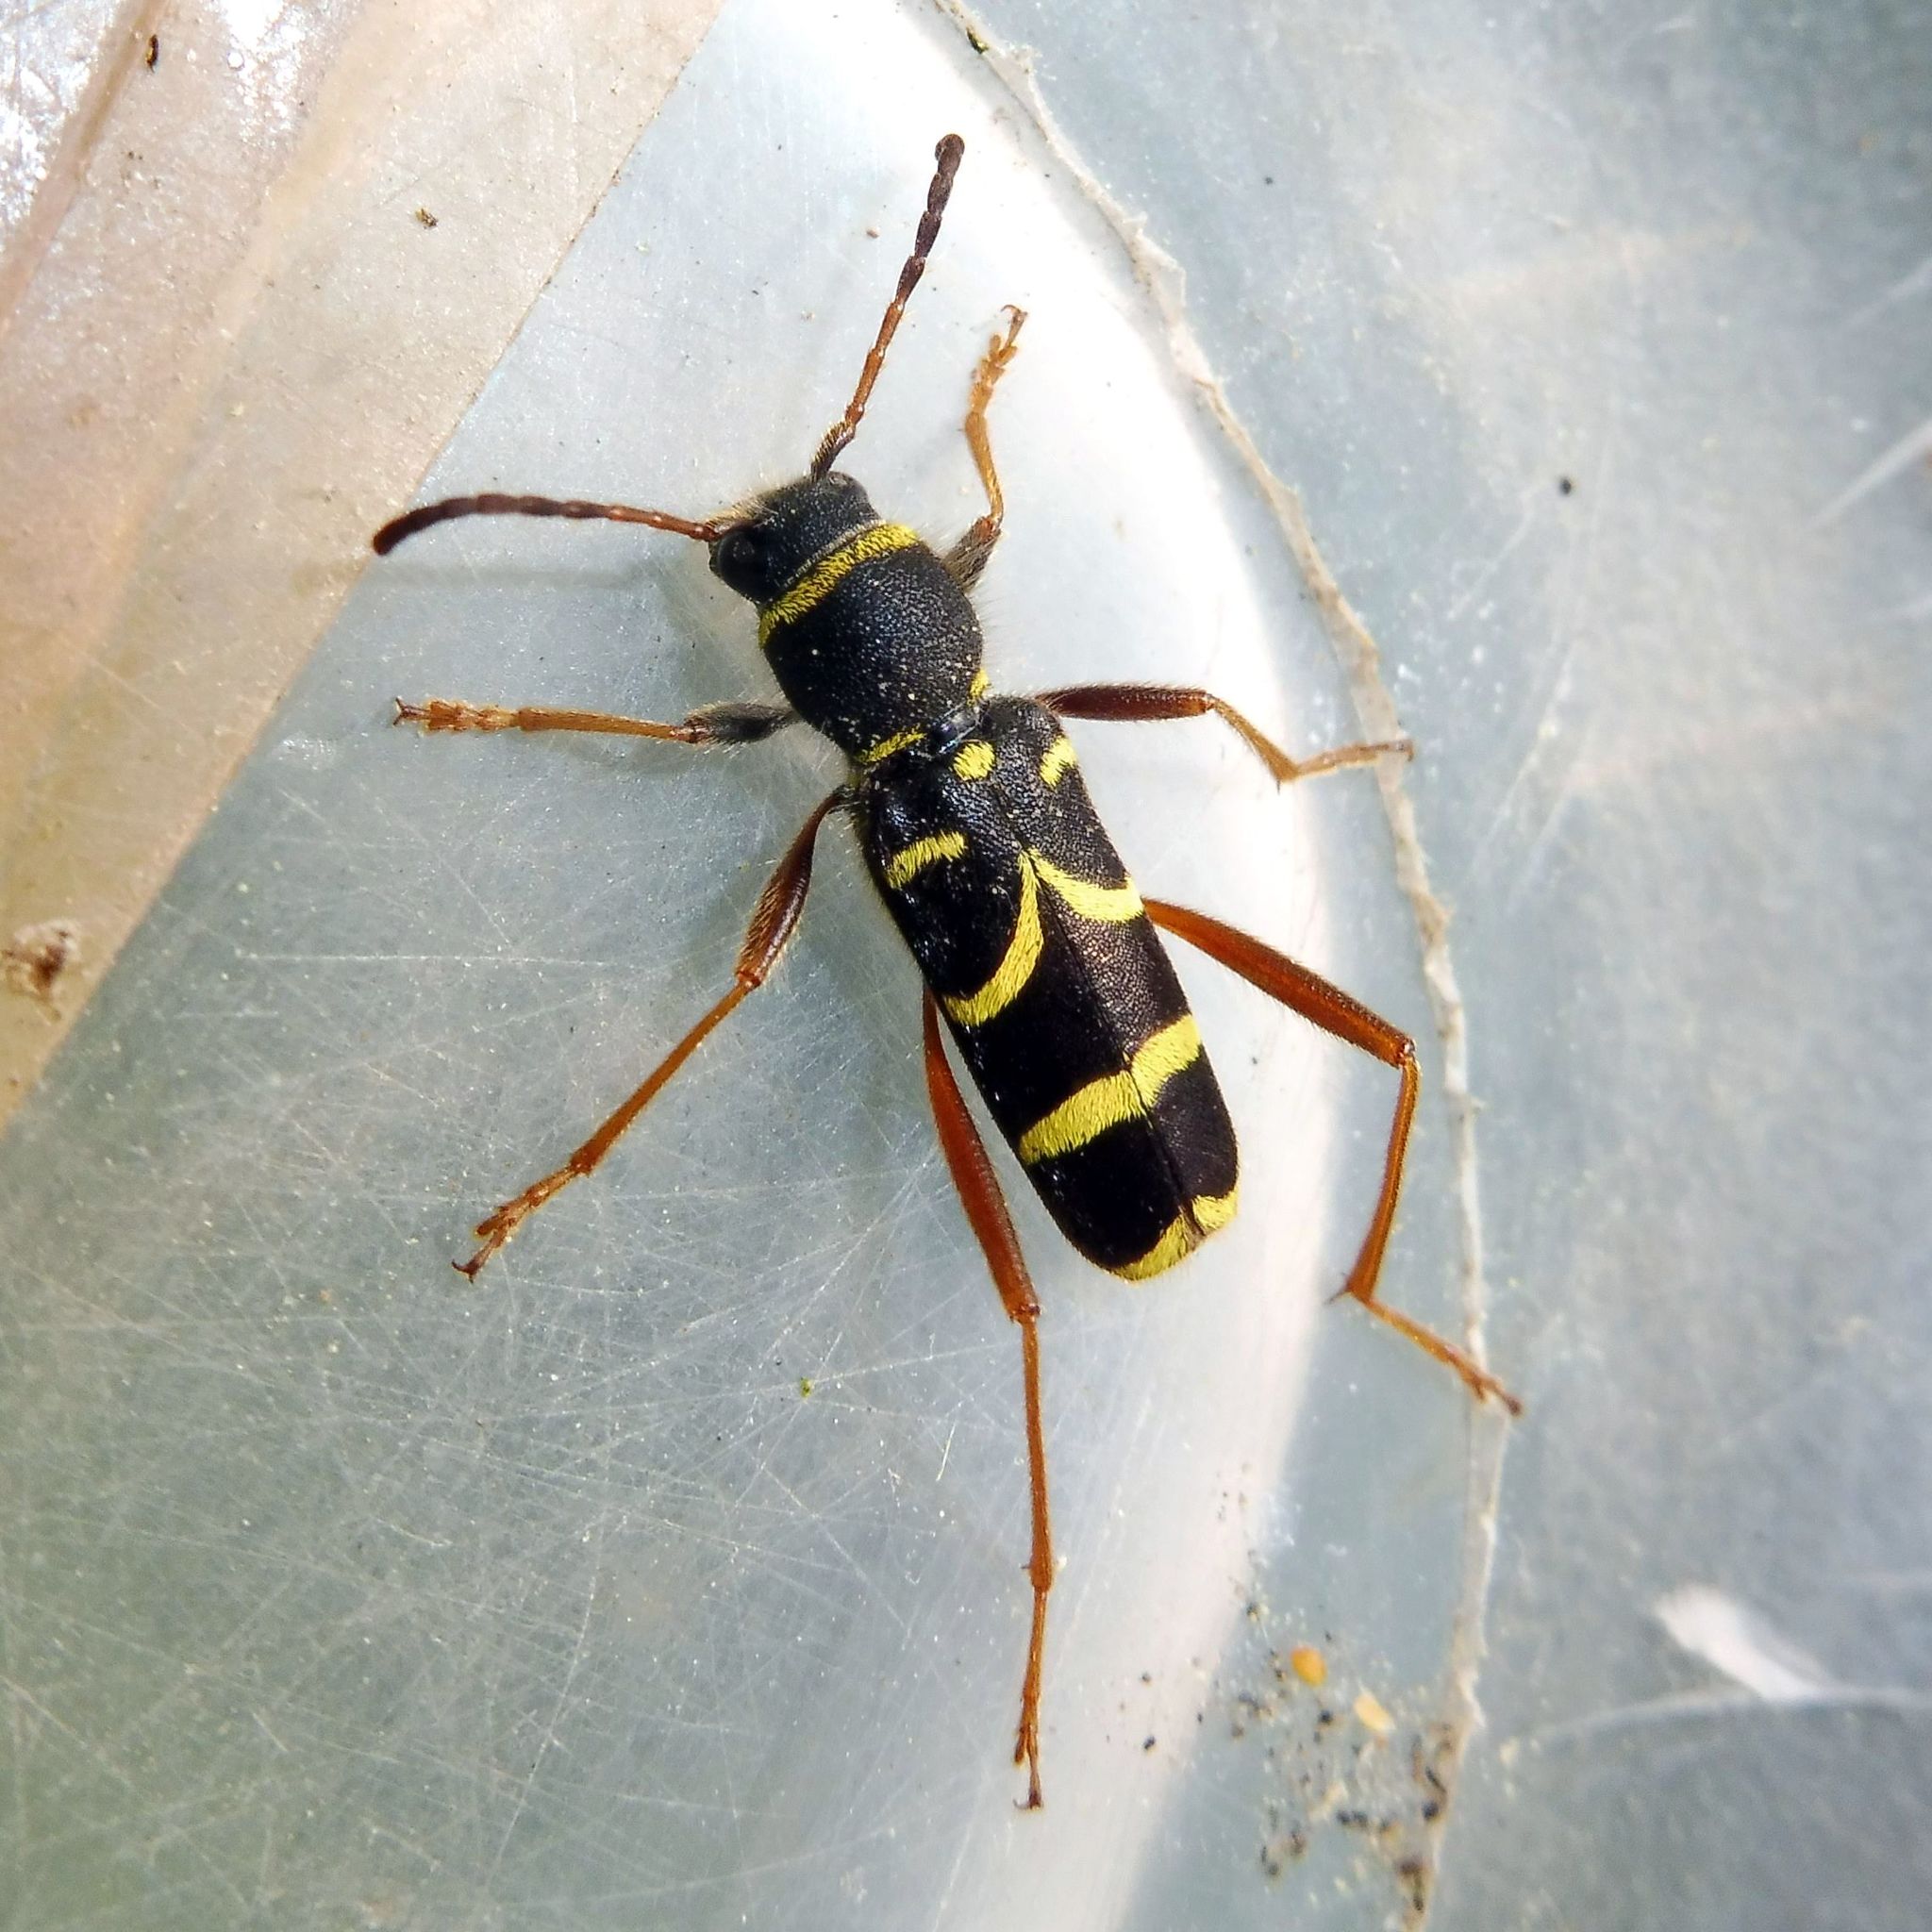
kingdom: Animalia
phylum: Arthropoda
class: Insecta
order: Coleoptera
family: Cerambycidae
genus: Clytus
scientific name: Clytus arietis
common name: Wasp beetle
